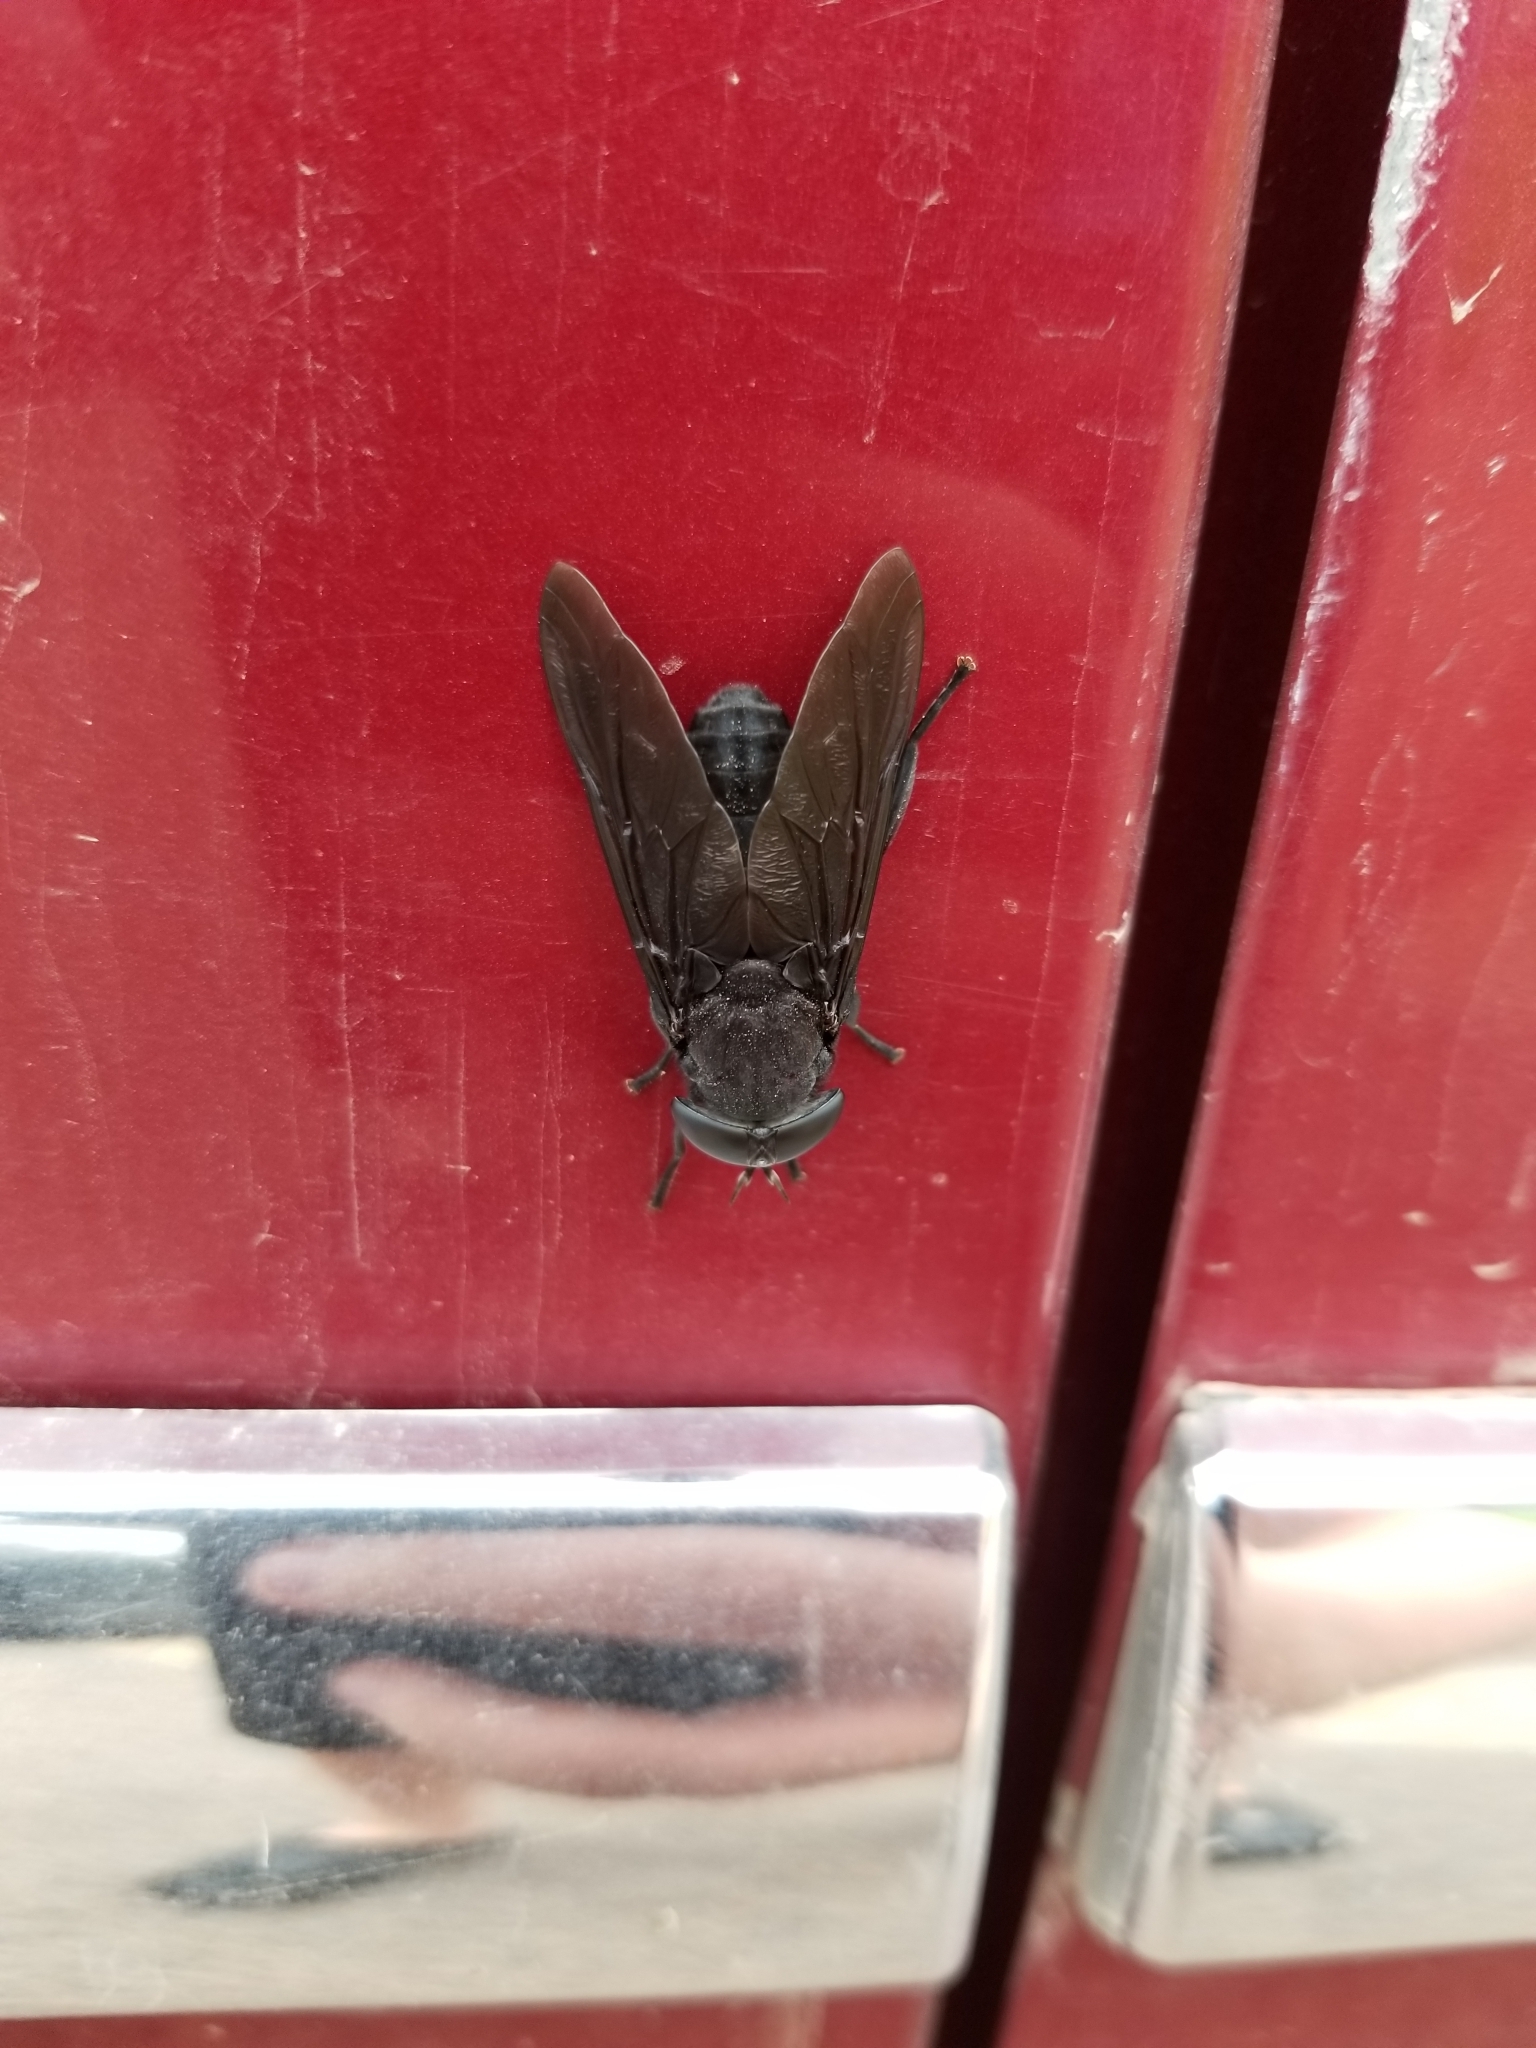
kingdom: Animalia
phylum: Arthropoda
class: Insecta
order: Diptera
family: Tabanidae
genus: Tabanus
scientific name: Tabanus atratus
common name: Black horse fly
